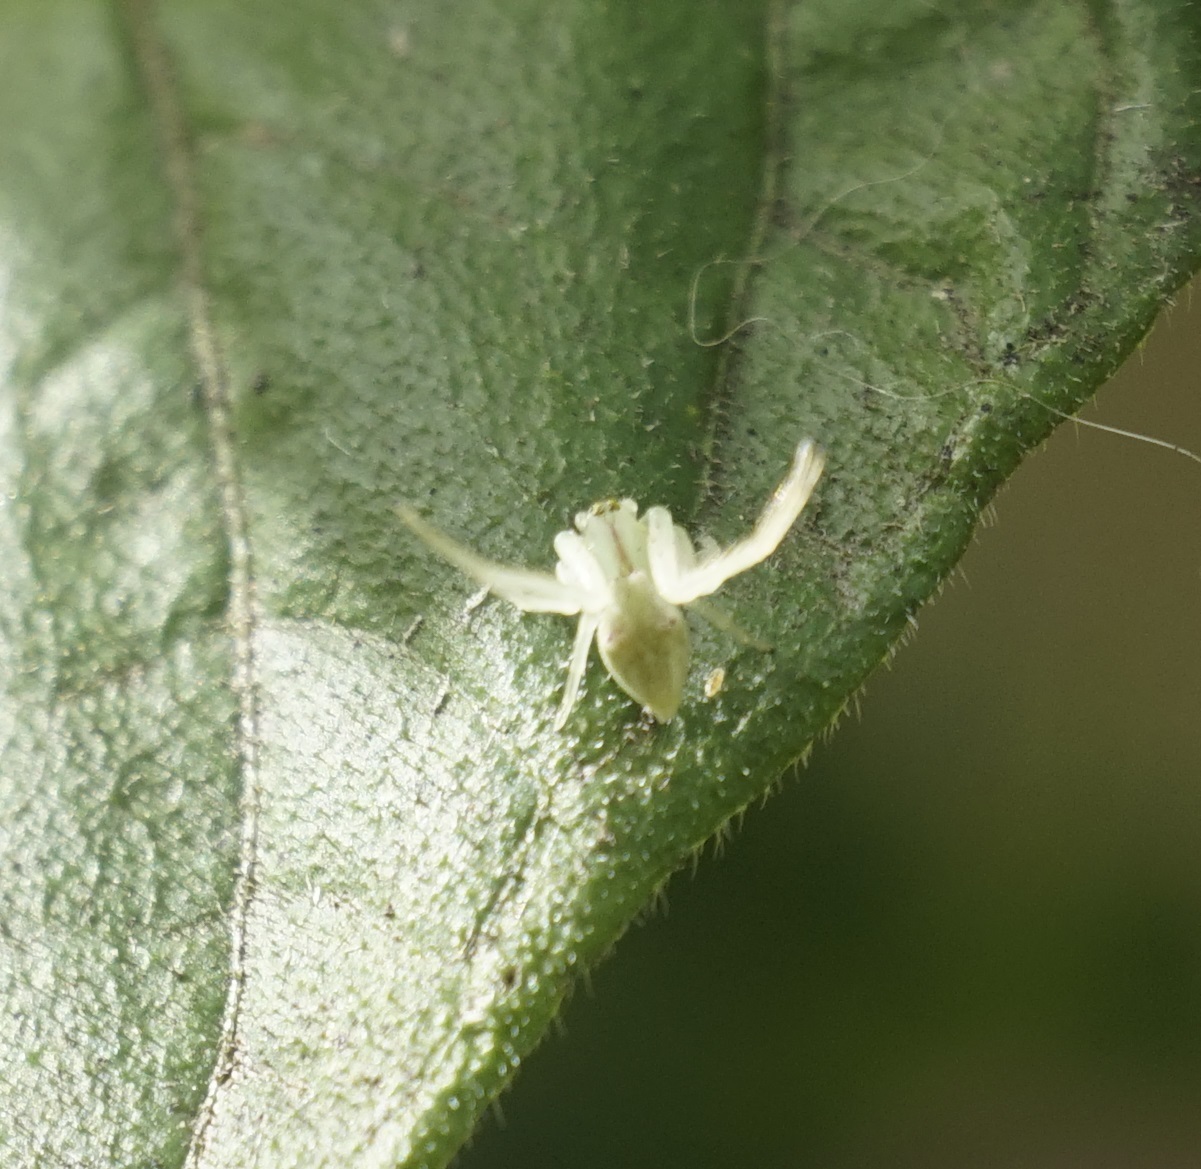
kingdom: Animalia
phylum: Arthropoda
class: Arachnida
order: Araneae
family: Thomisidae
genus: Sidymella
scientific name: Sidymella rubrosignata
